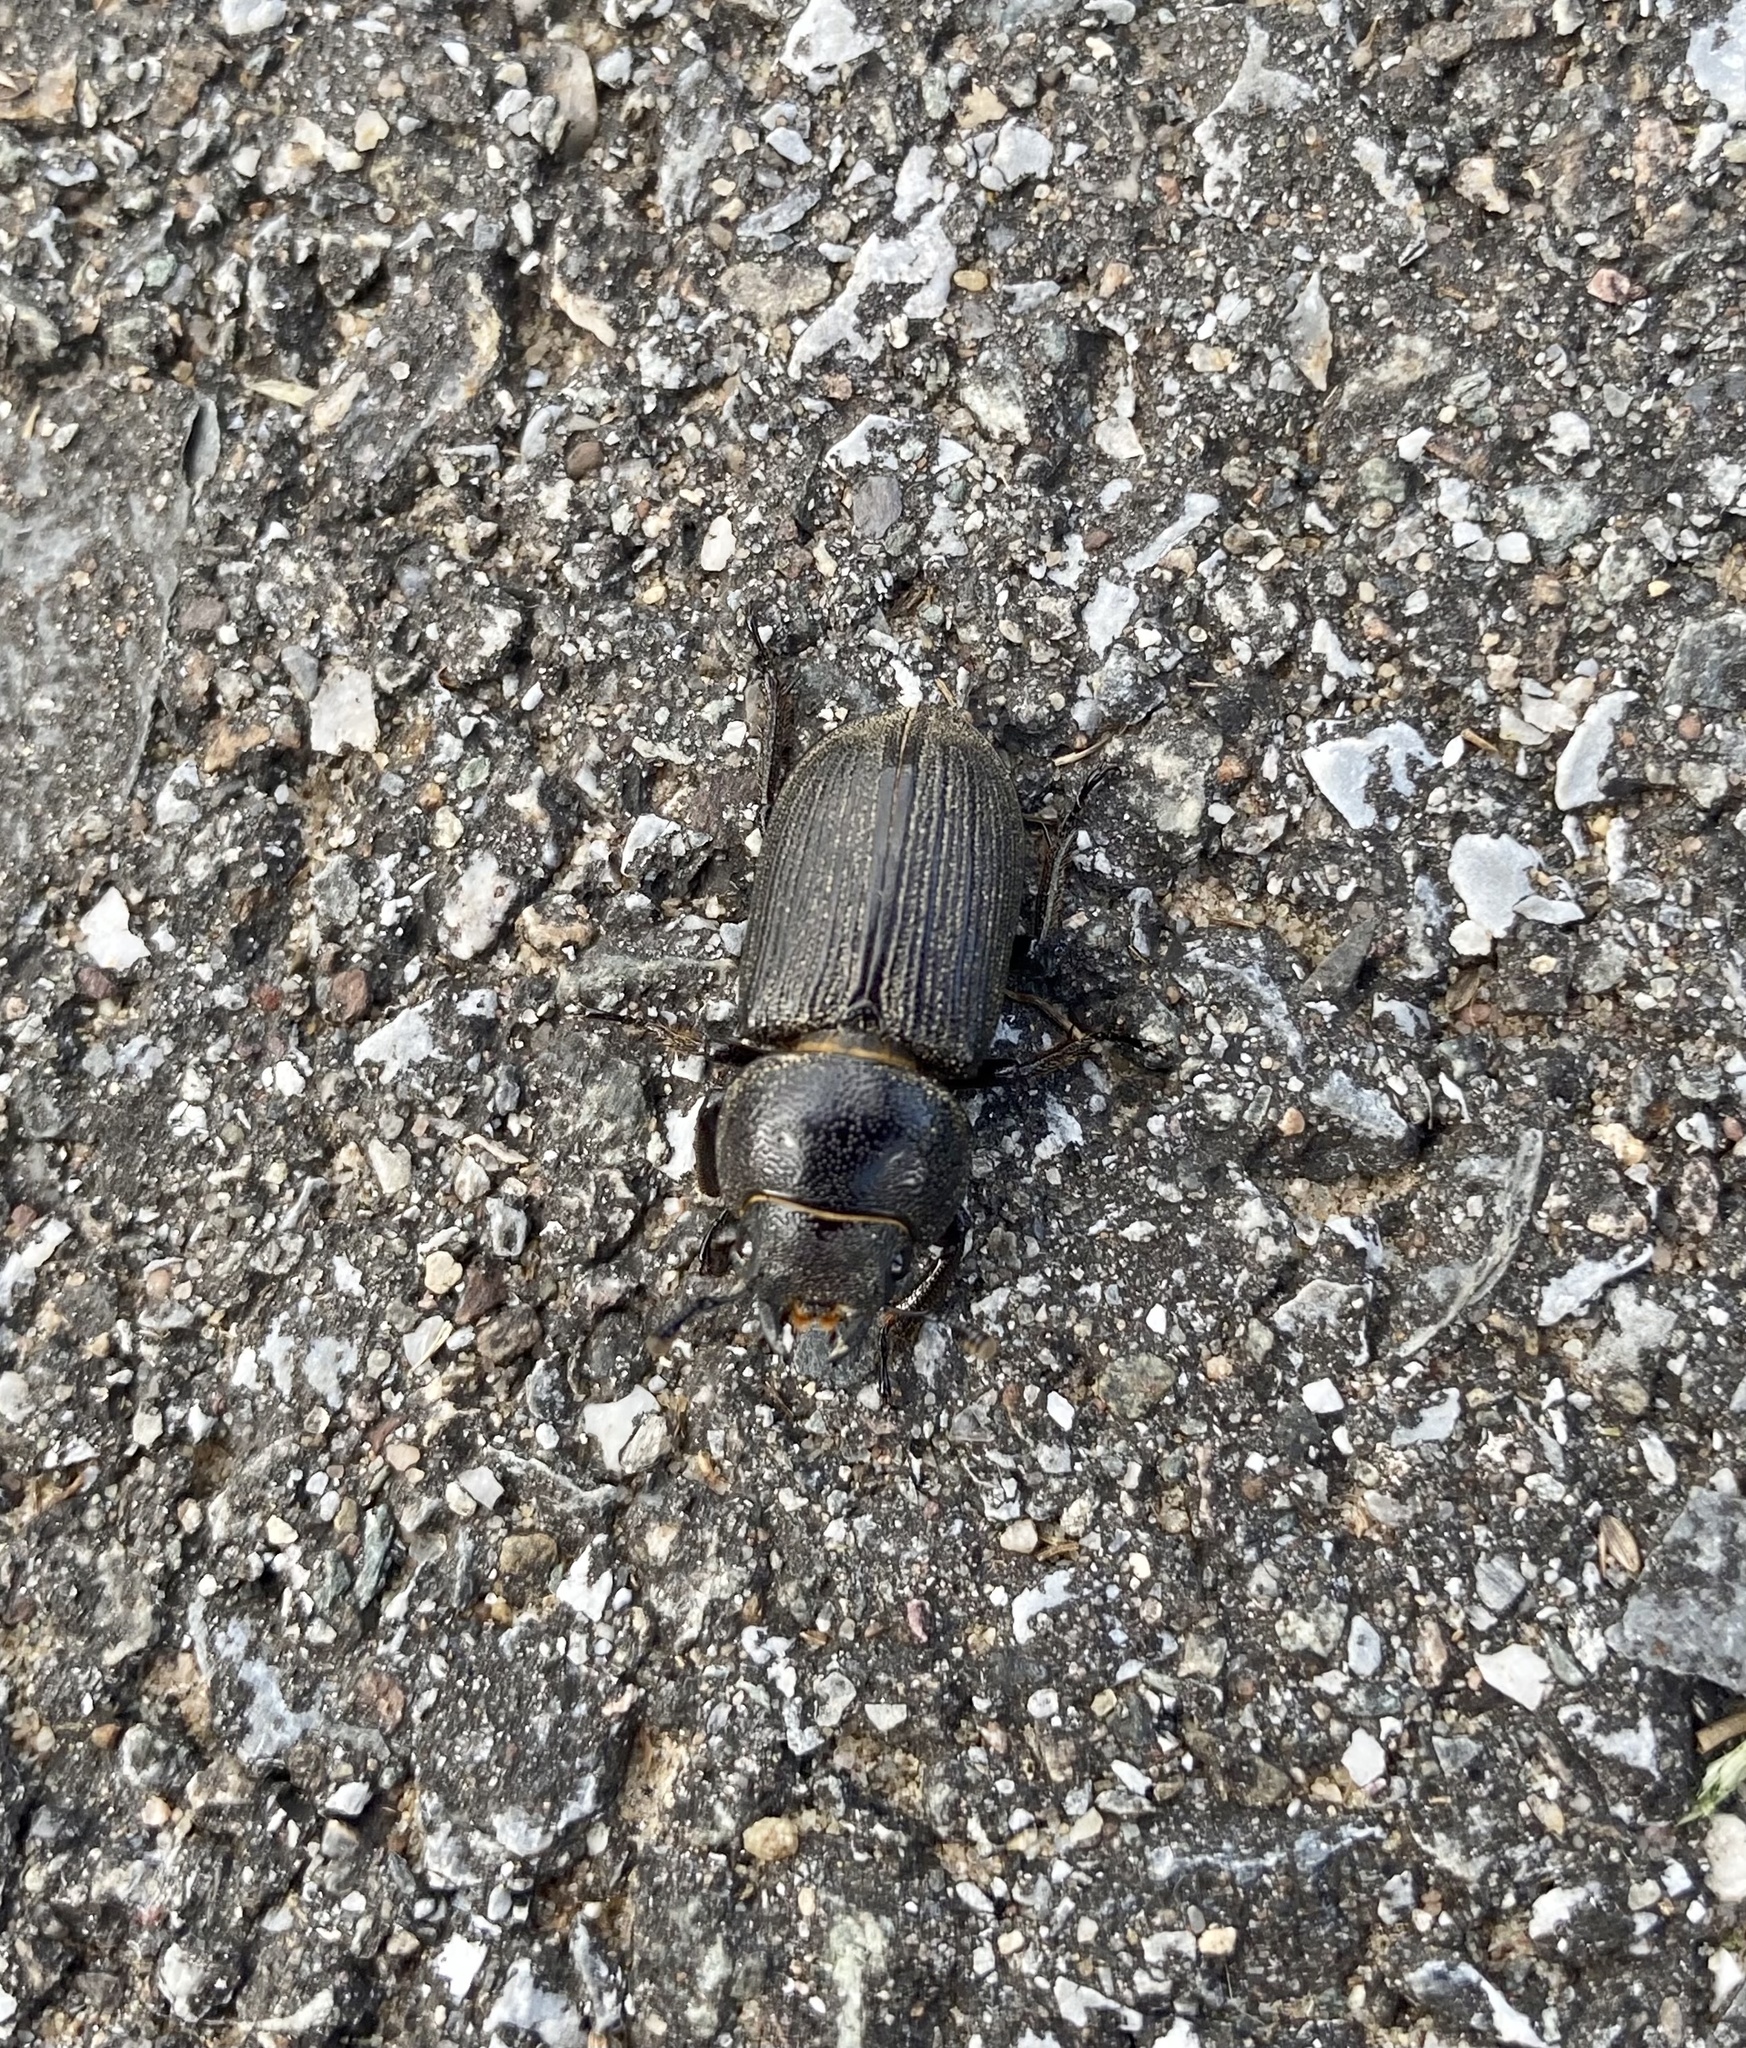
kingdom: Animalia
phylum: Arthropoda
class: Insecta
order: Coleoptera
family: Lucanidae
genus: Dorcus
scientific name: Dorcus parallelus
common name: Antelope beetle
